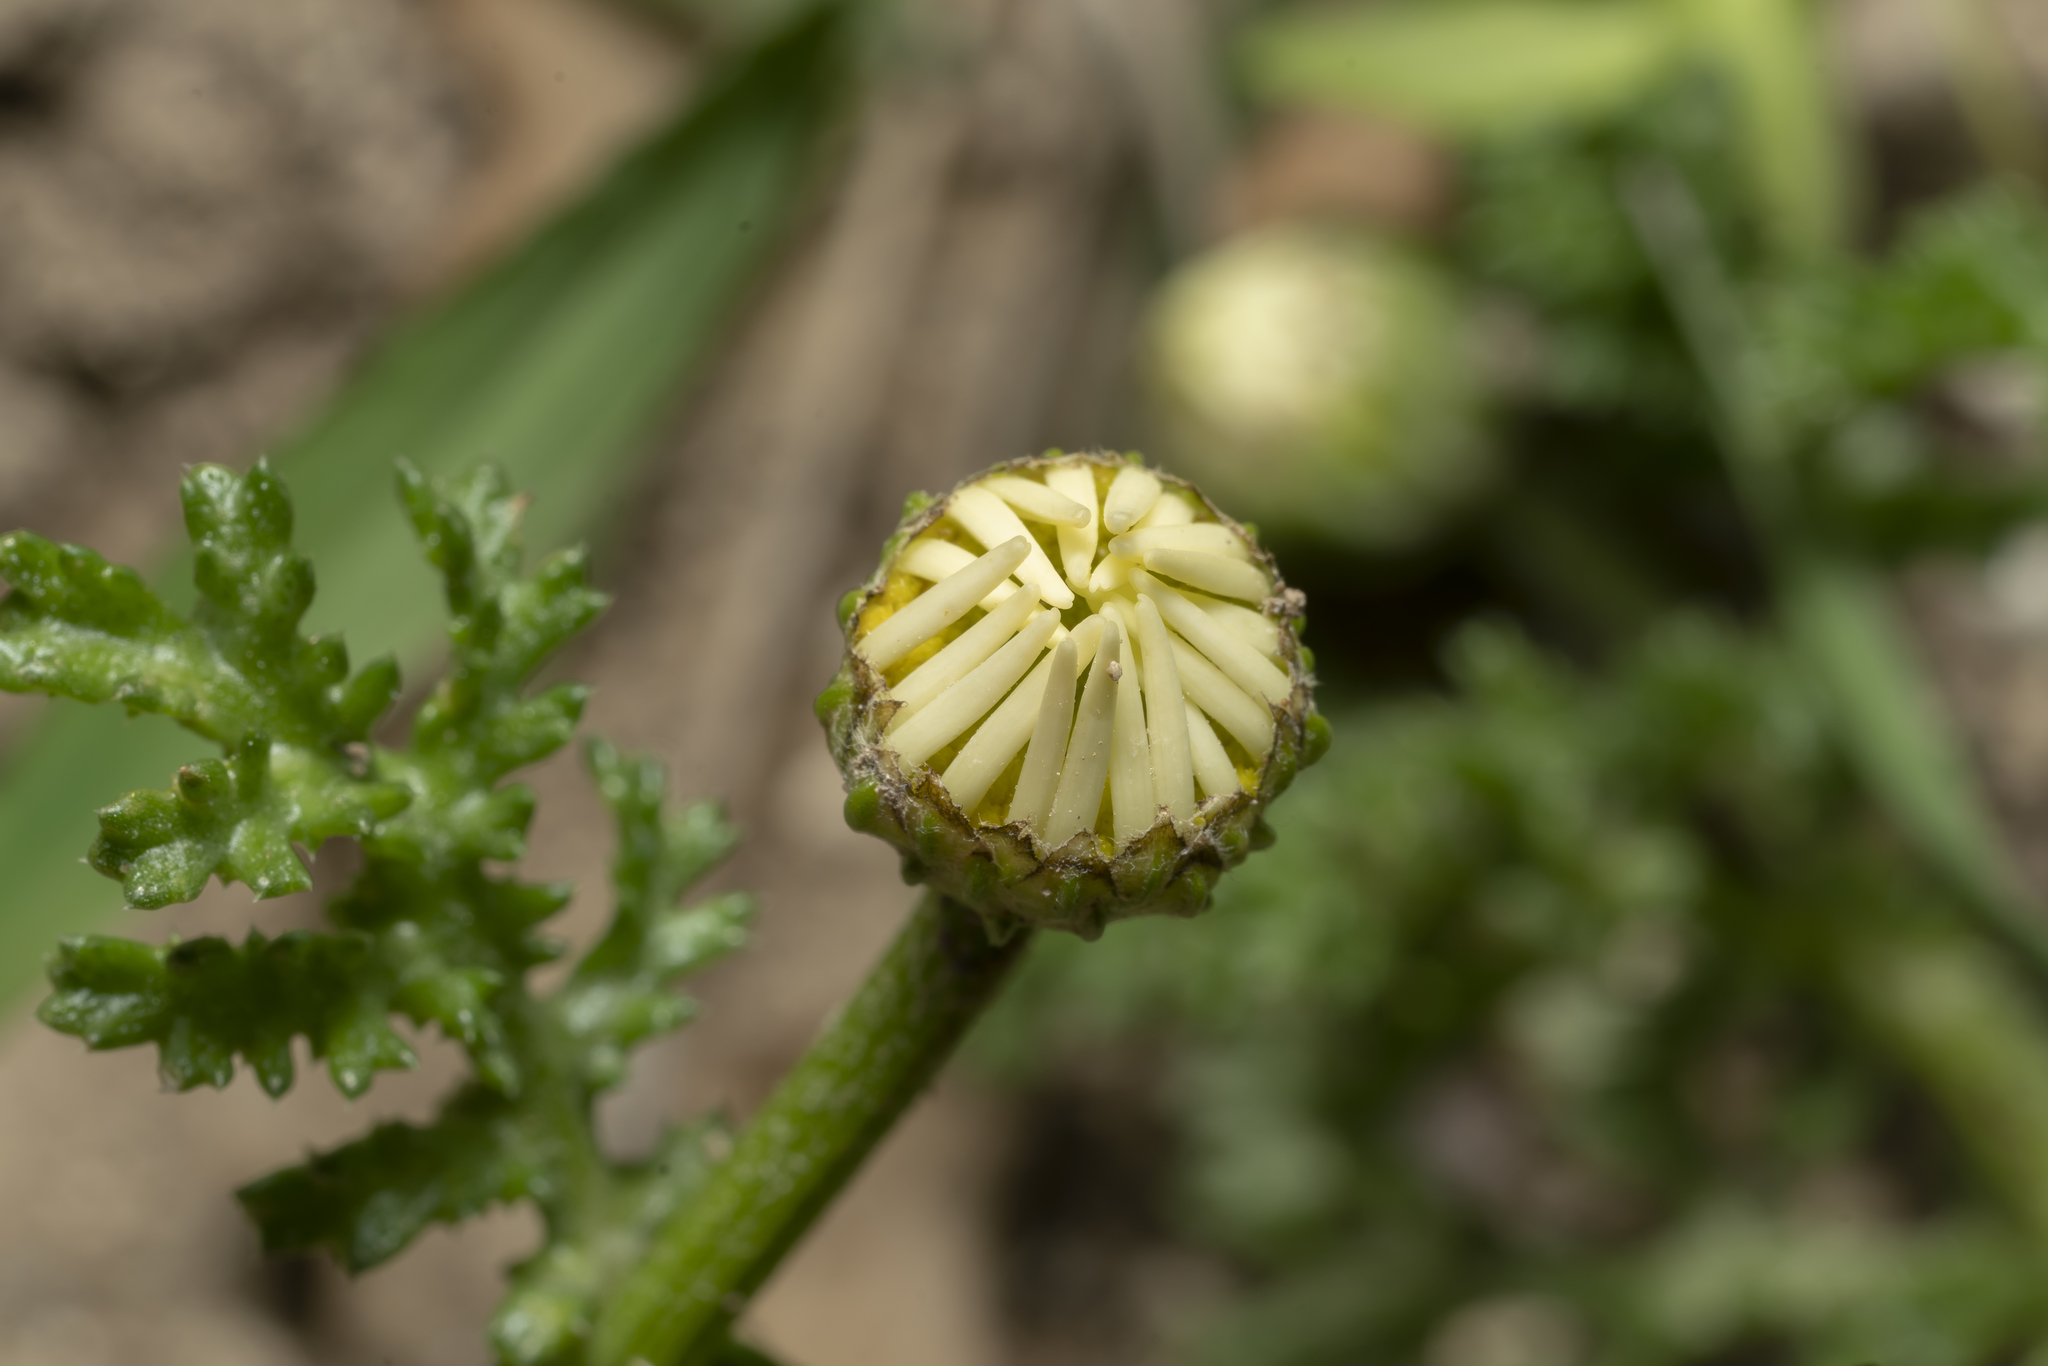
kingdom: Plantae
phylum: Tracheophyta
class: Magnoliopsida
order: Asterales
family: Asteraceae
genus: Cota
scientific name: Cota amblyolepis
